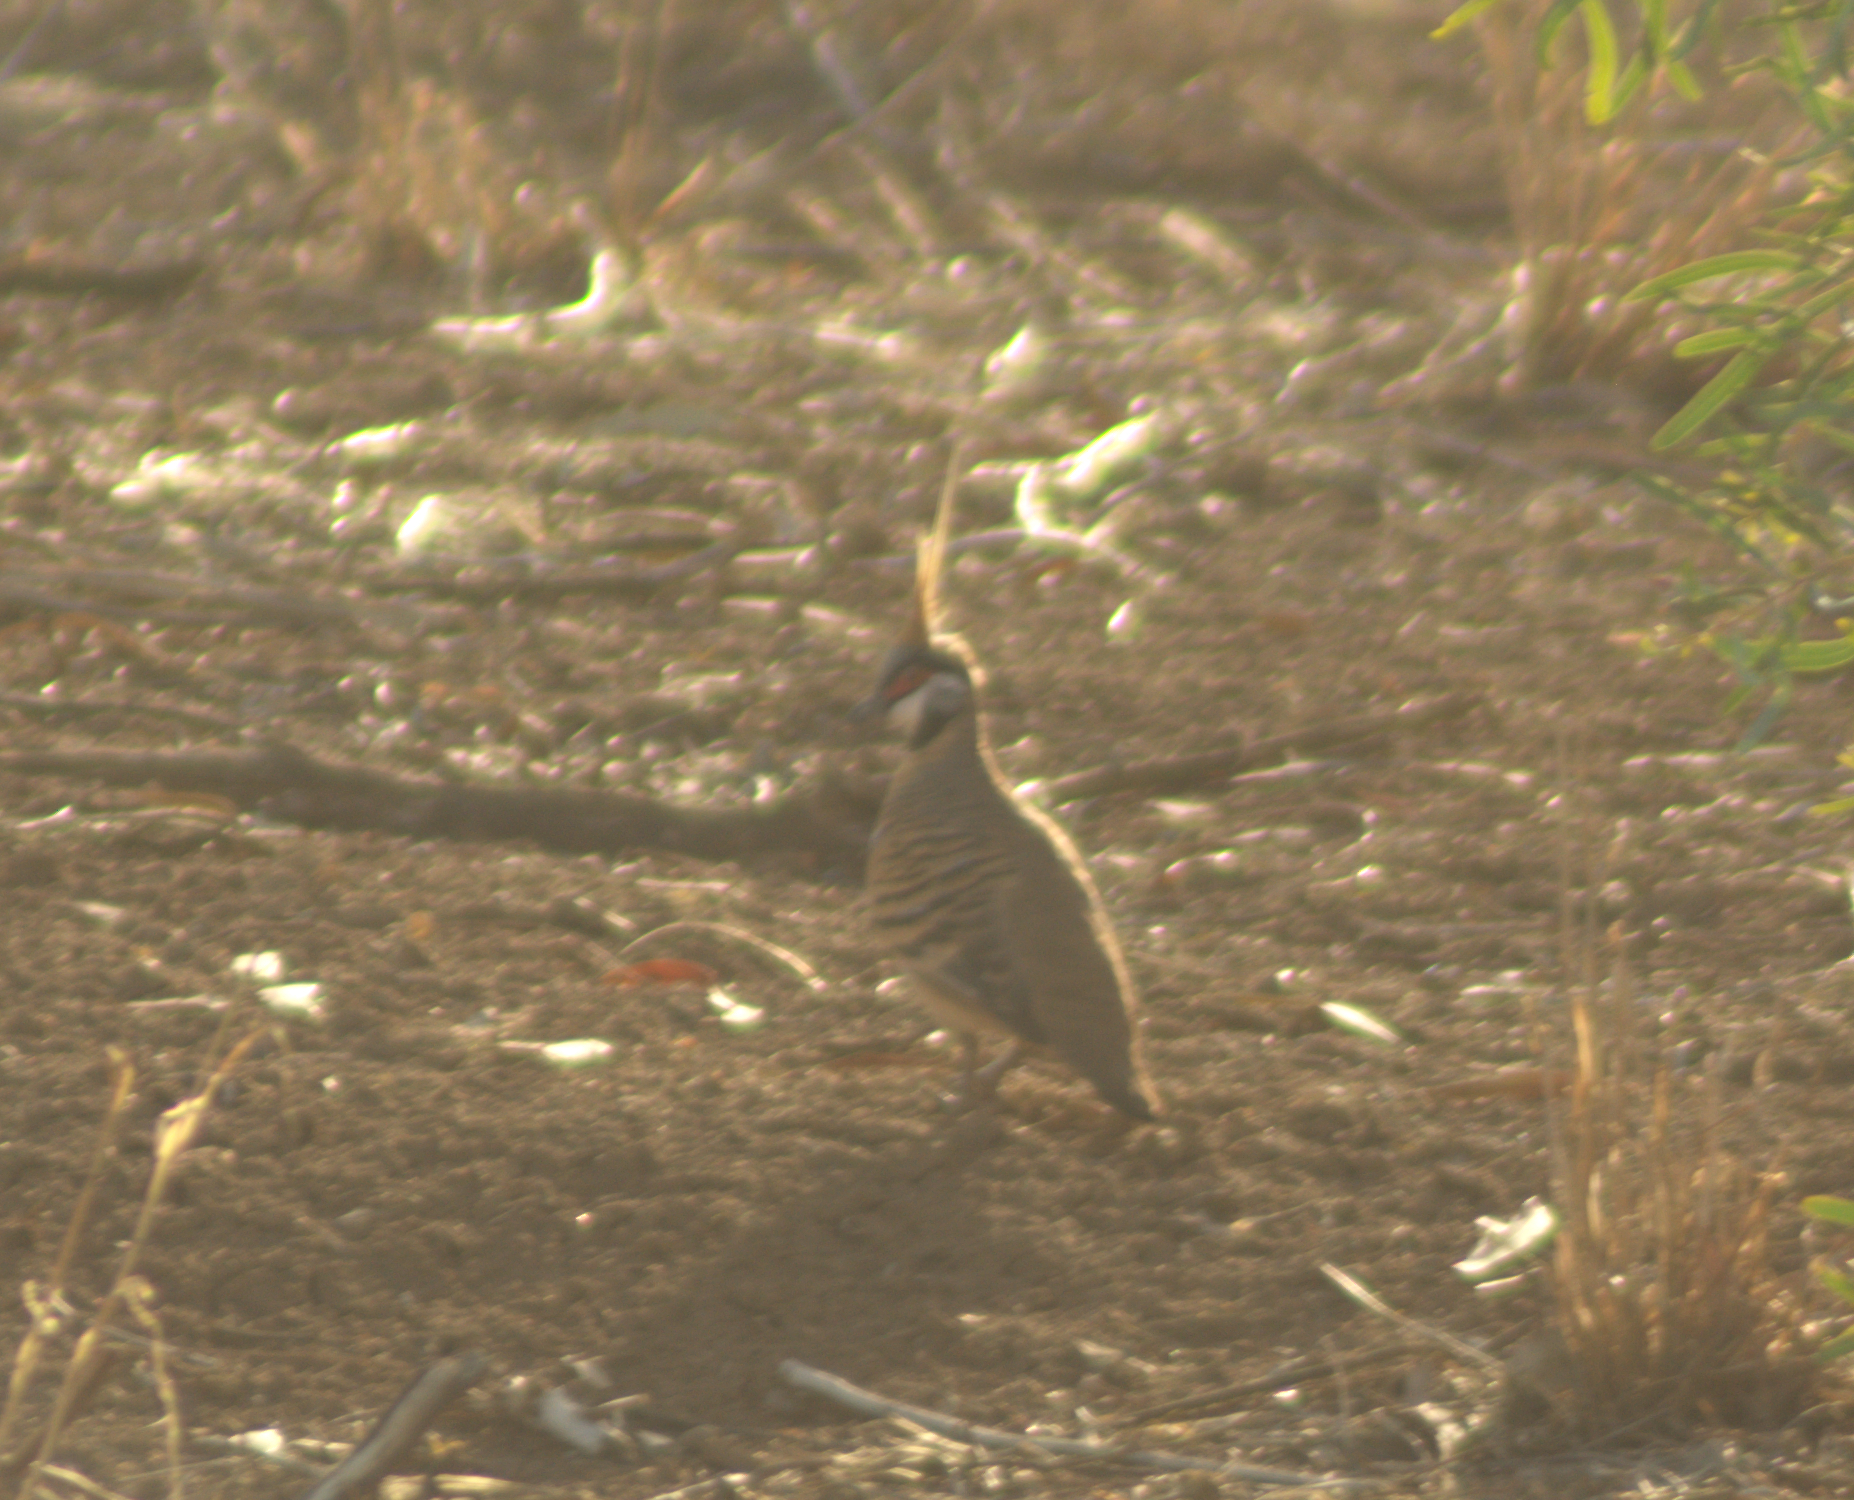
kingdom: Animalia
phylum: Chordata
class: Aves
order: Columbiformes
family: Columbidae
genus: Geophaps
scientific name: Geophaps plumifera
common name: Spinifex pigeon
